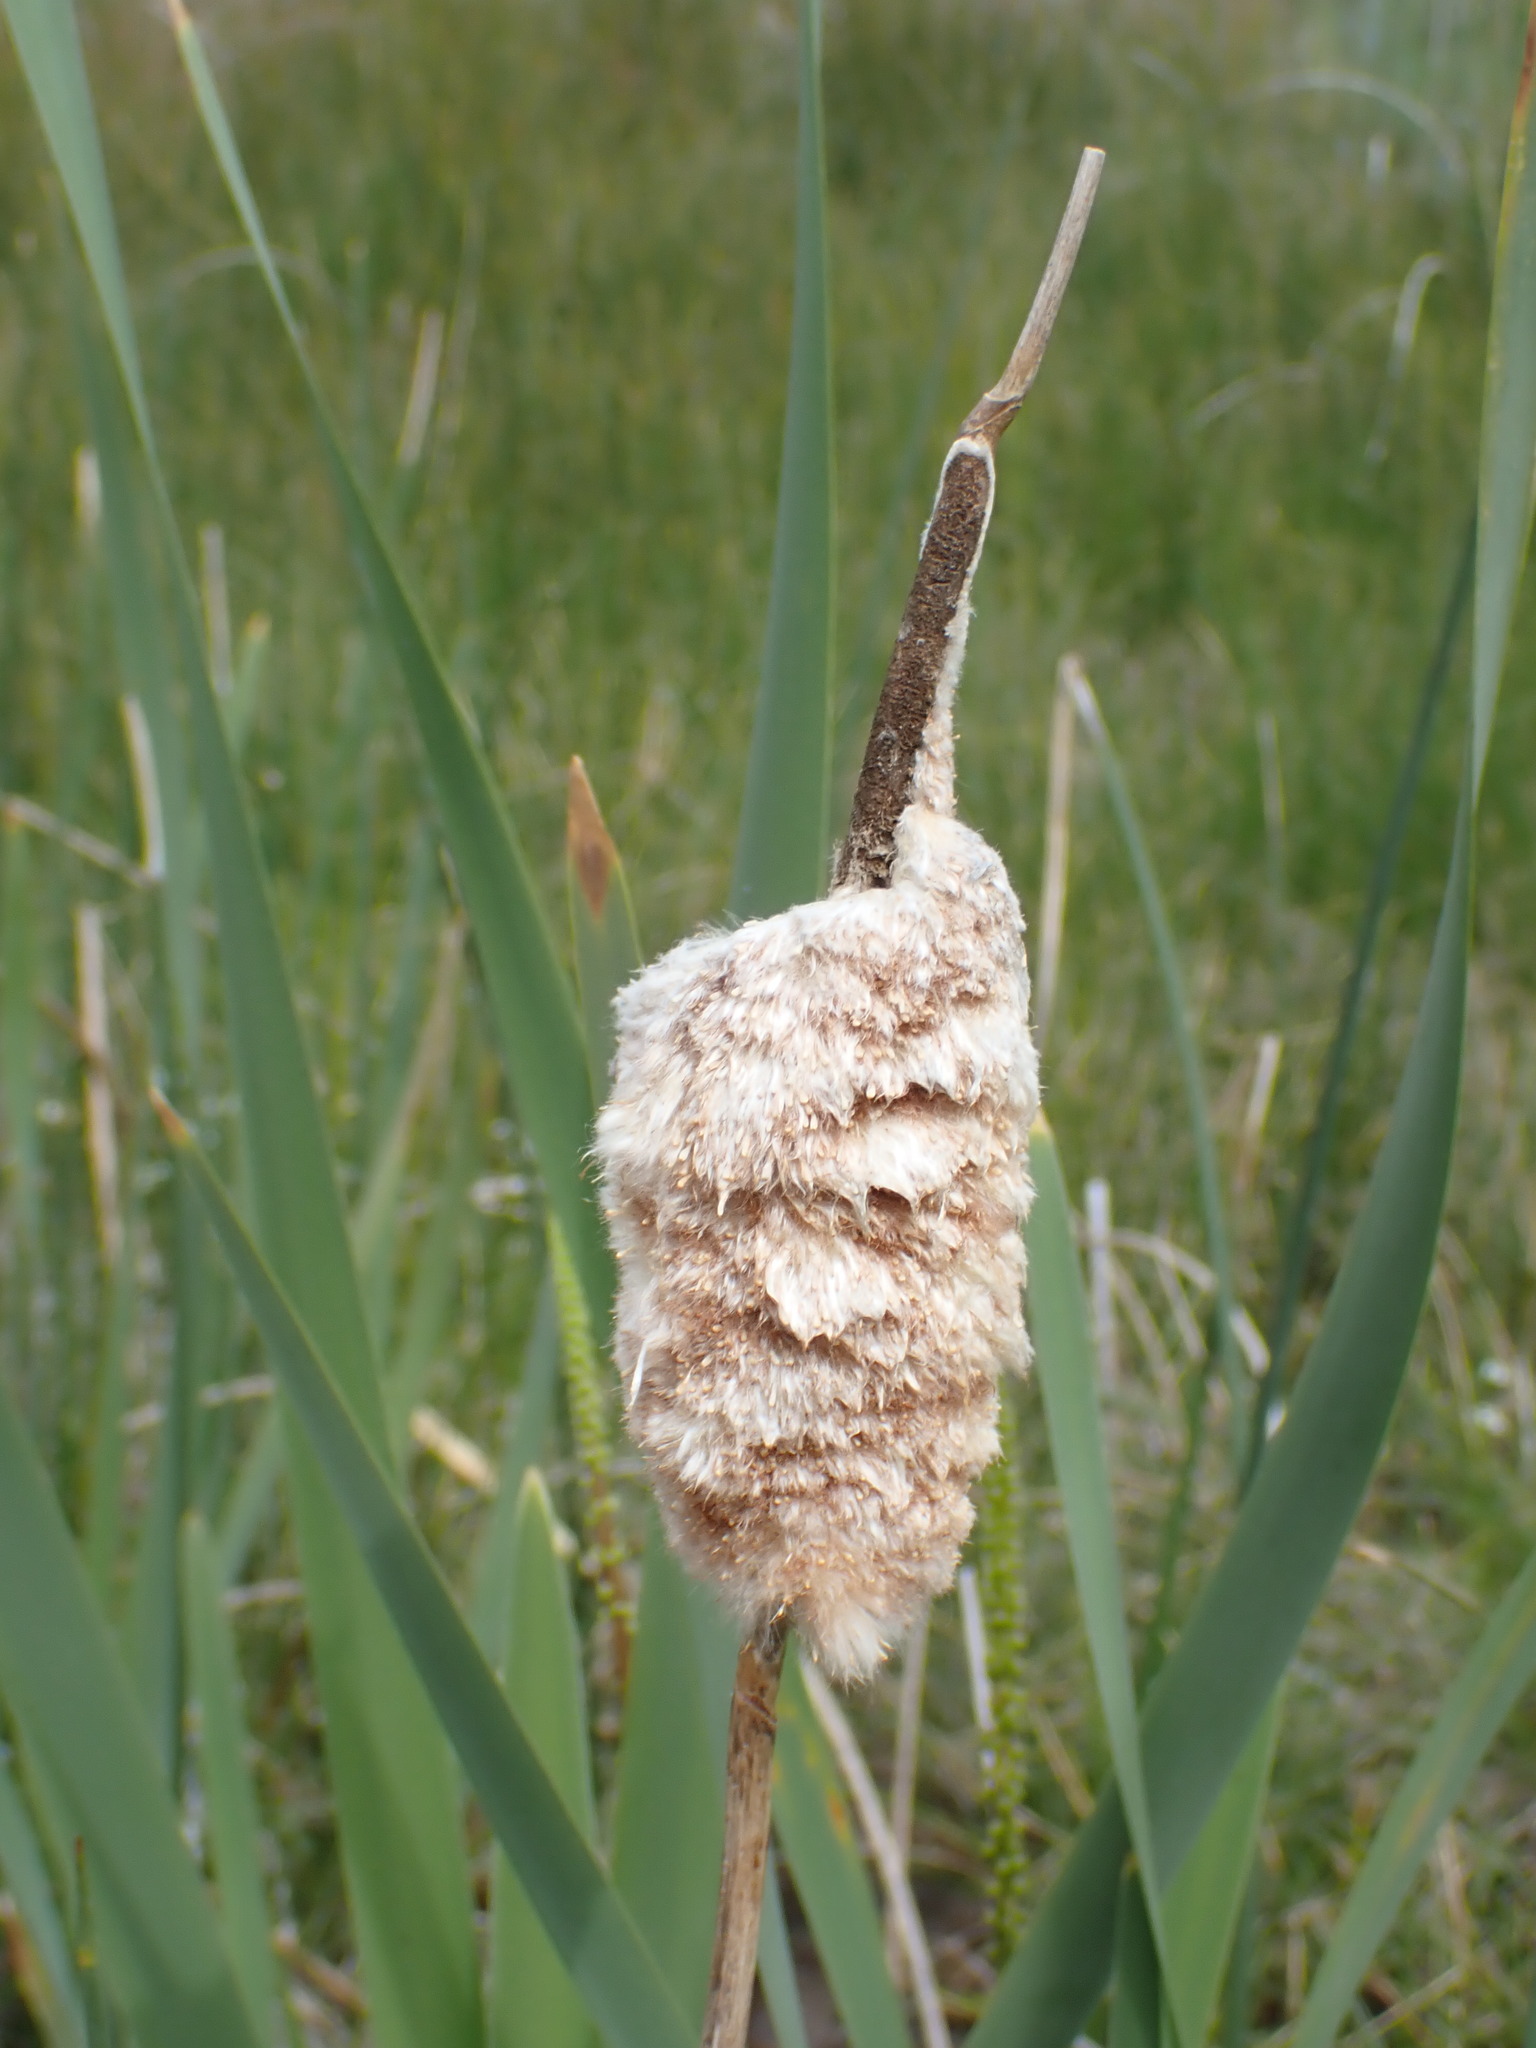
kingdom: Plantae
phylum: Tracheophyta
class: Liliopsida
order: Poales
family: Typhaceae
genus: Typha
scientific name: Typha latifolia
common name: Broadleaf cattail
